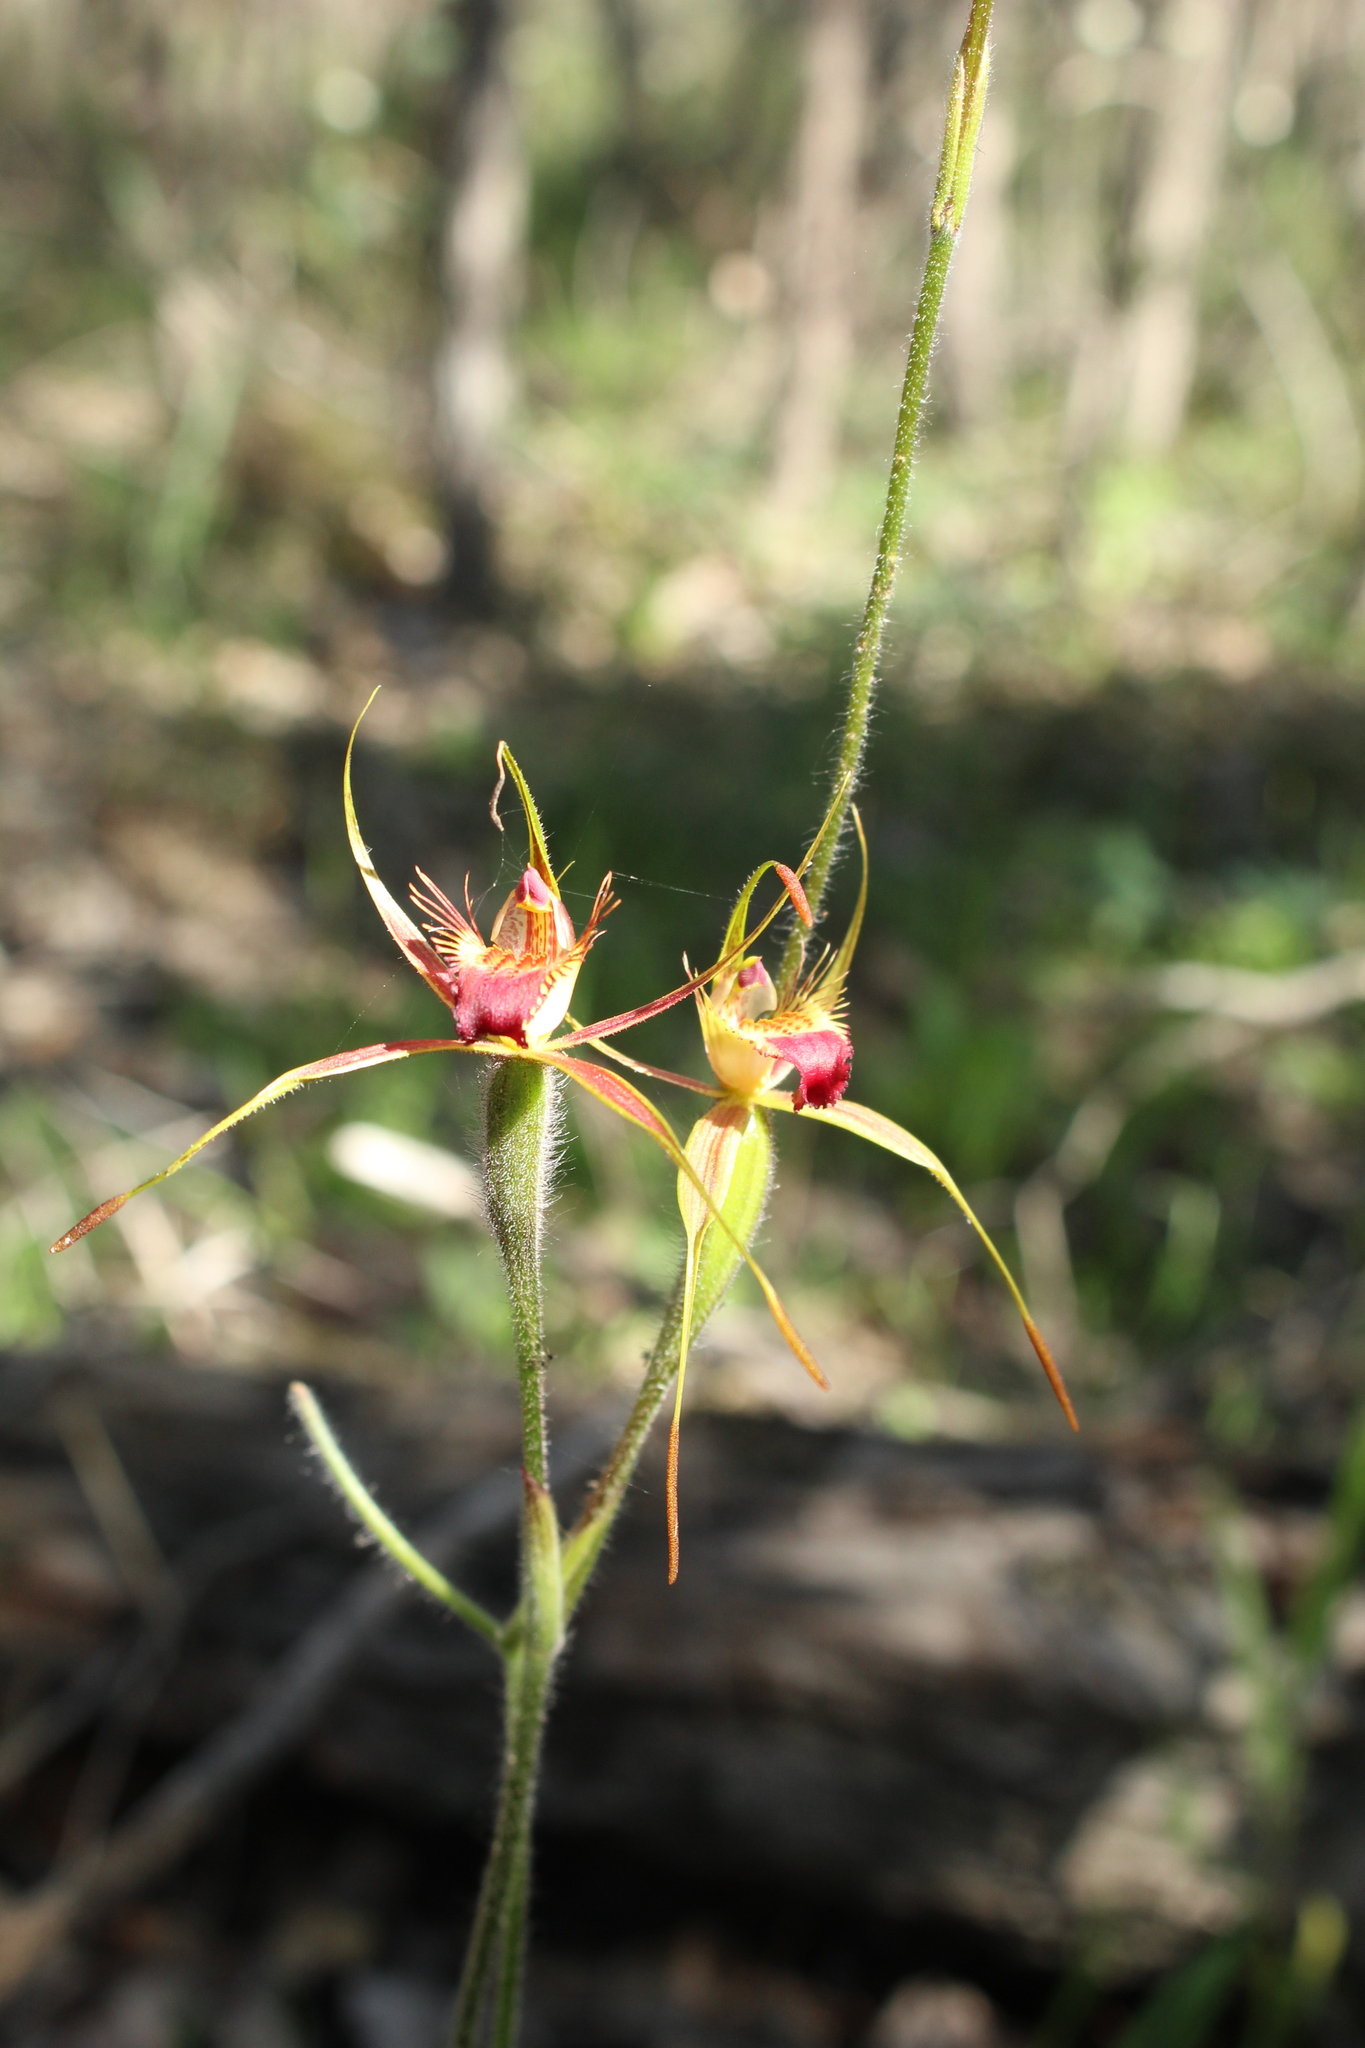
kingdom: Plantae
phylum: Tracheophyta
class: Liliopsida
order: Asparagales
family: Orchidaceae
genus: Caladenia
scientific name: Caladenia ferruginea
